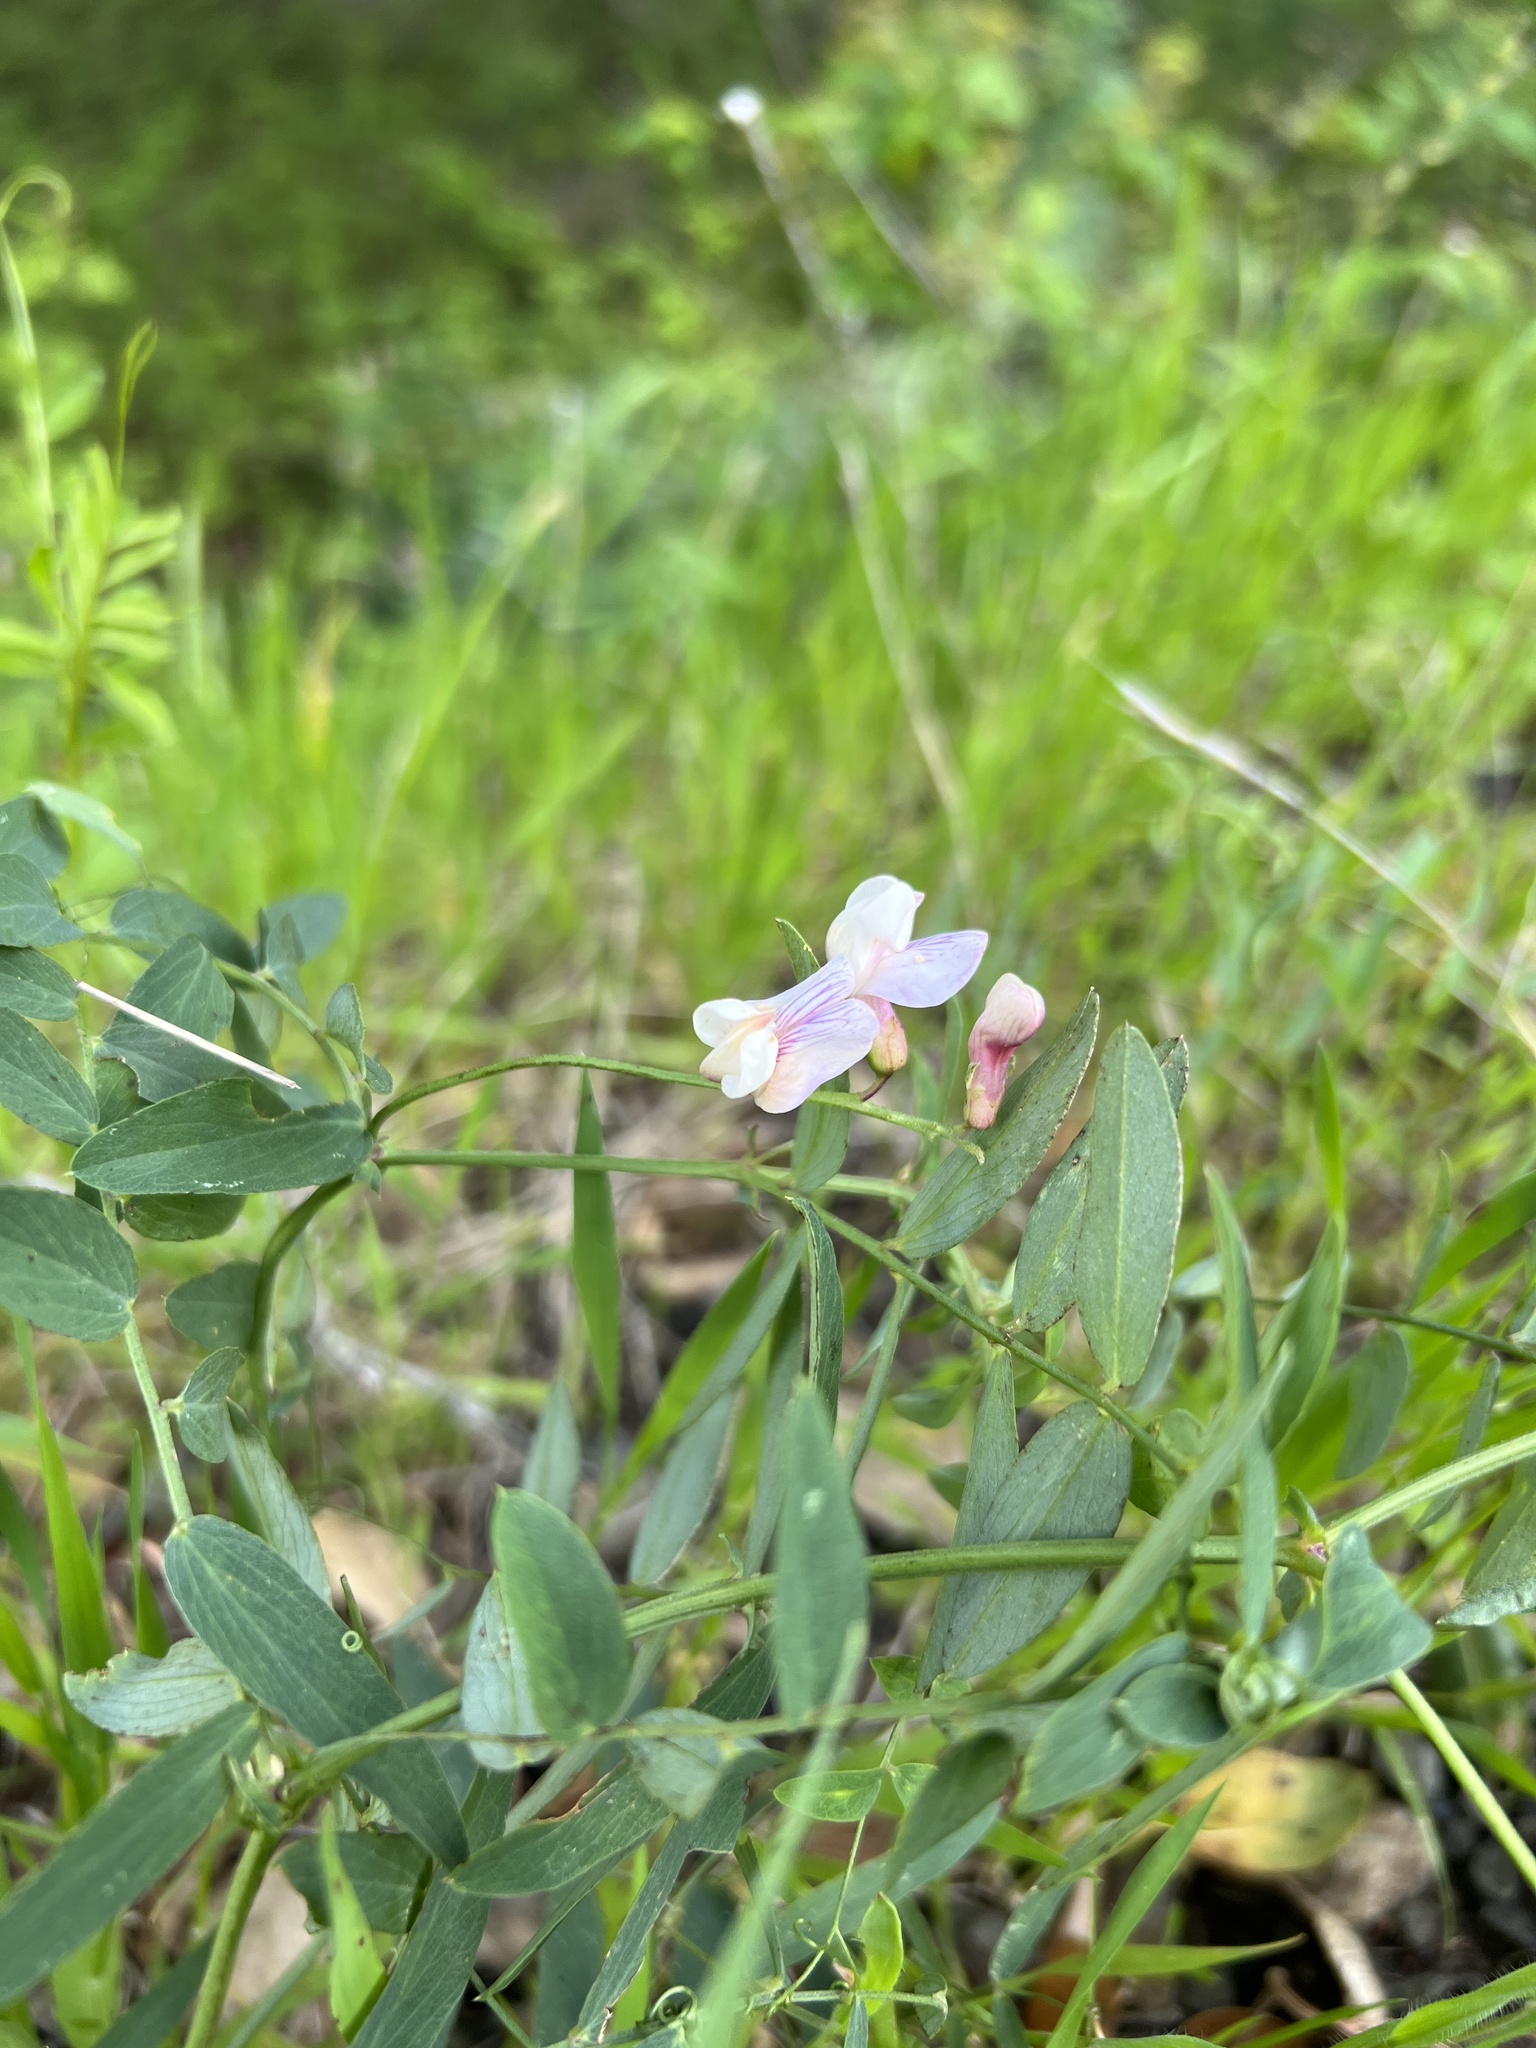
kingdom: Plantae
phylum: Tracheophyta
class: Magnoliopsida
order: Fabales
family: Fabaceae
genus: Lathyrus
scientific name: Lathyrus vestitus
